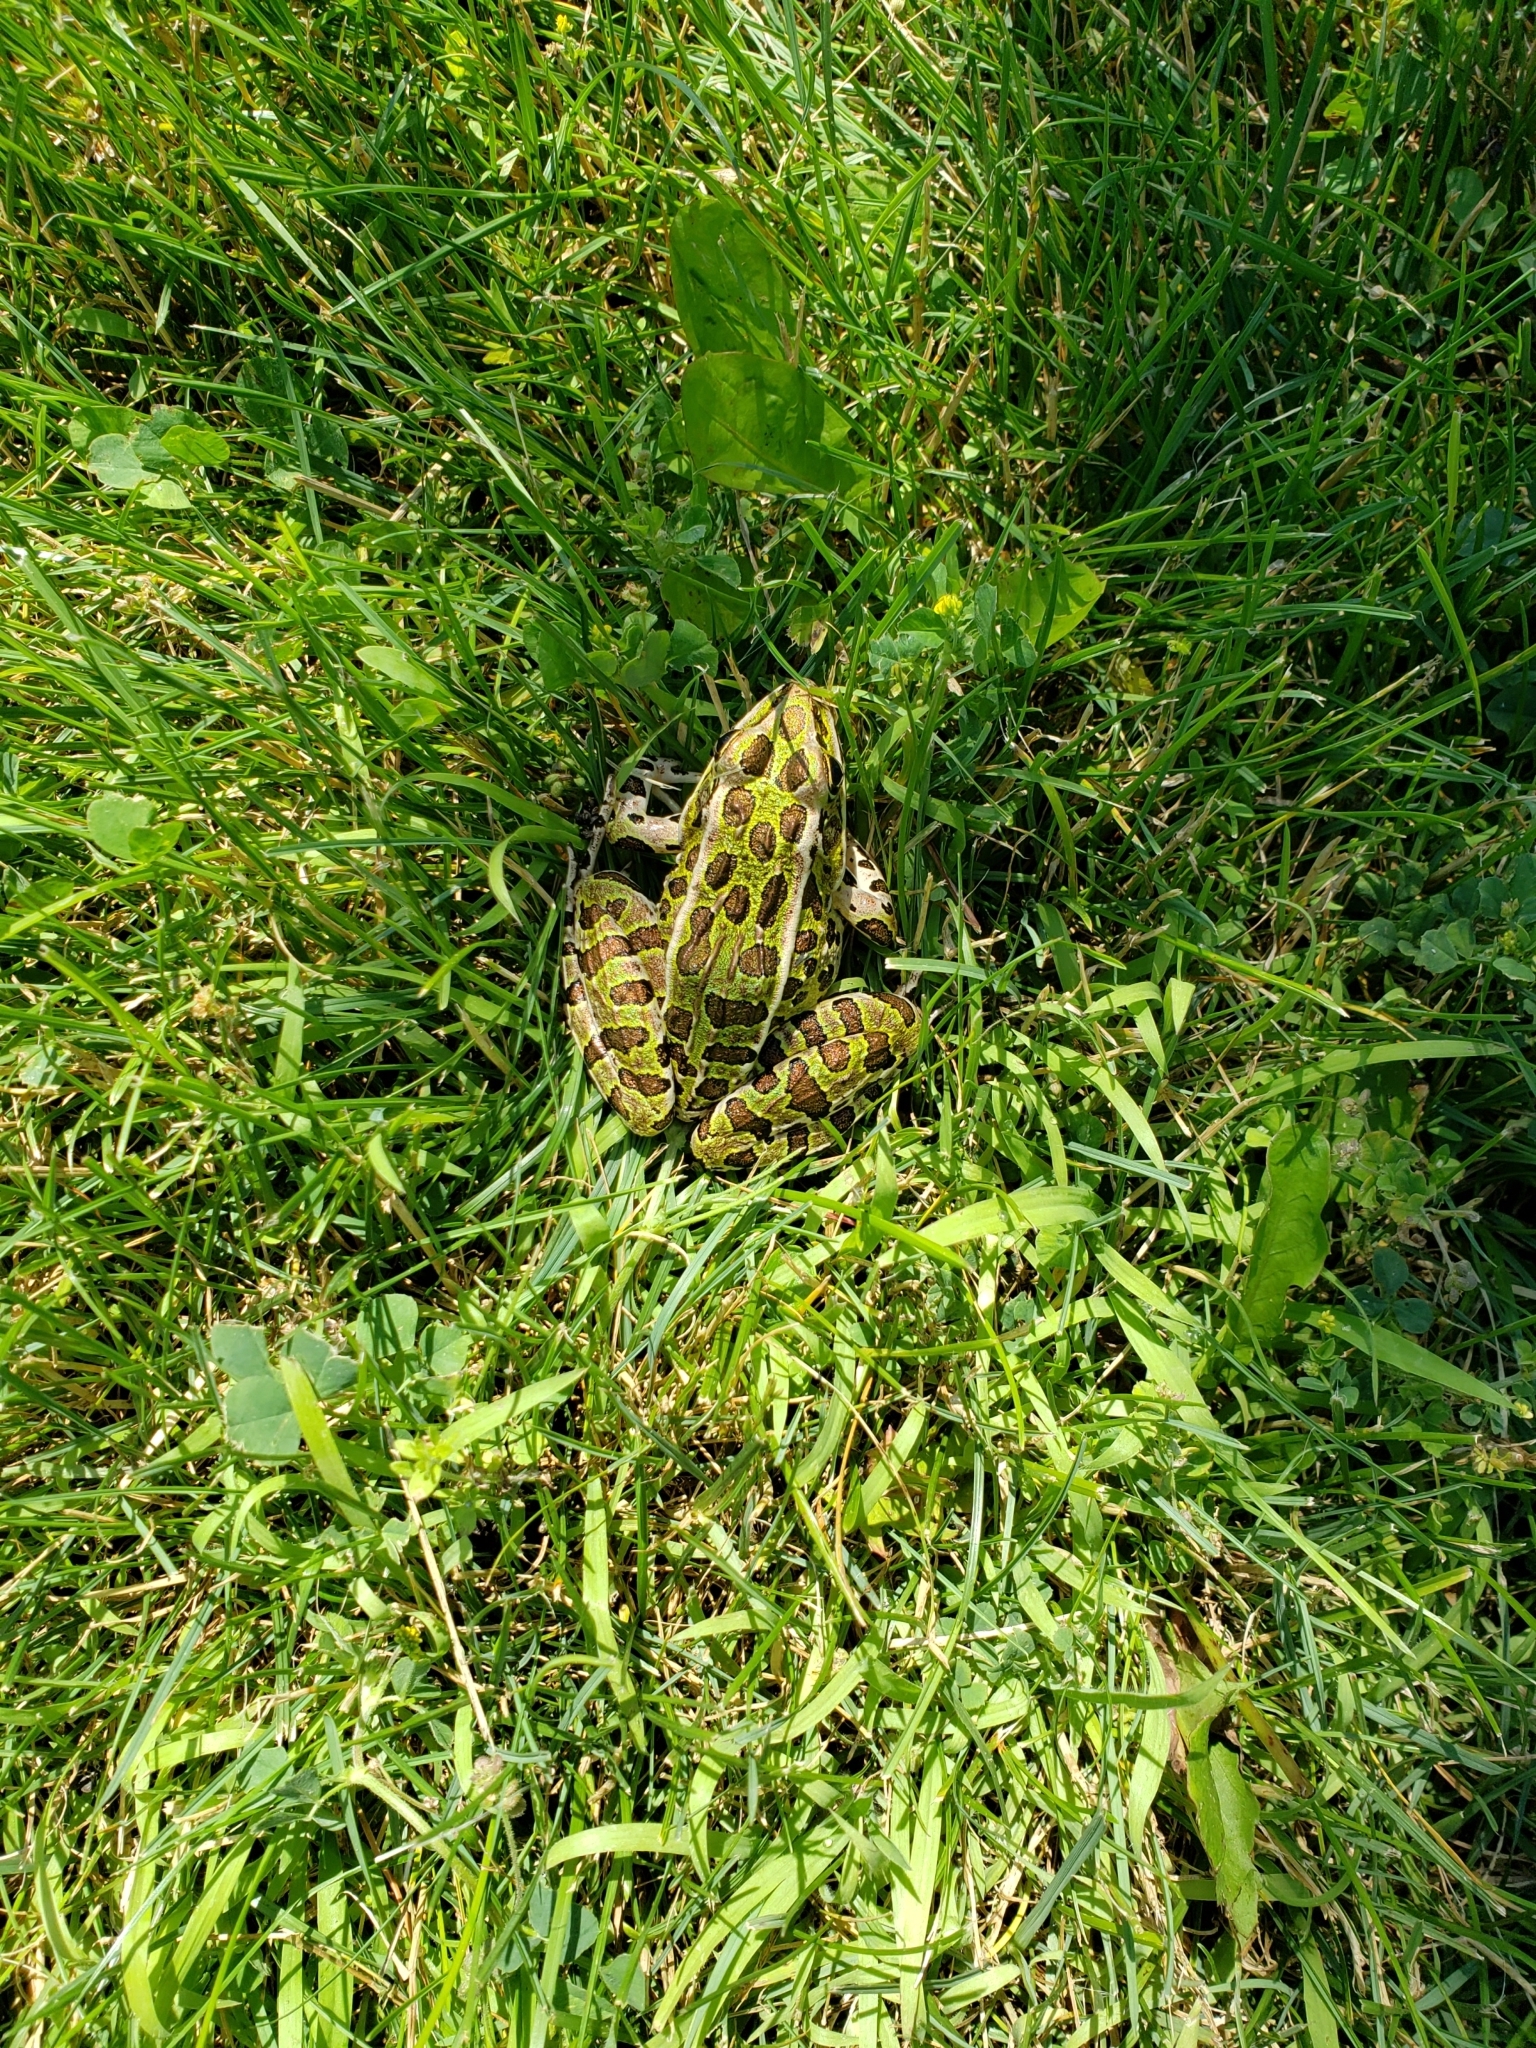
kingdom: Animalia
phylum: Chordata
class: Amphibia
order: Anura
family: Ranidae
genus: Lithobates
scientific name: Lithobates pipiens
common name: Northern leopard frog
